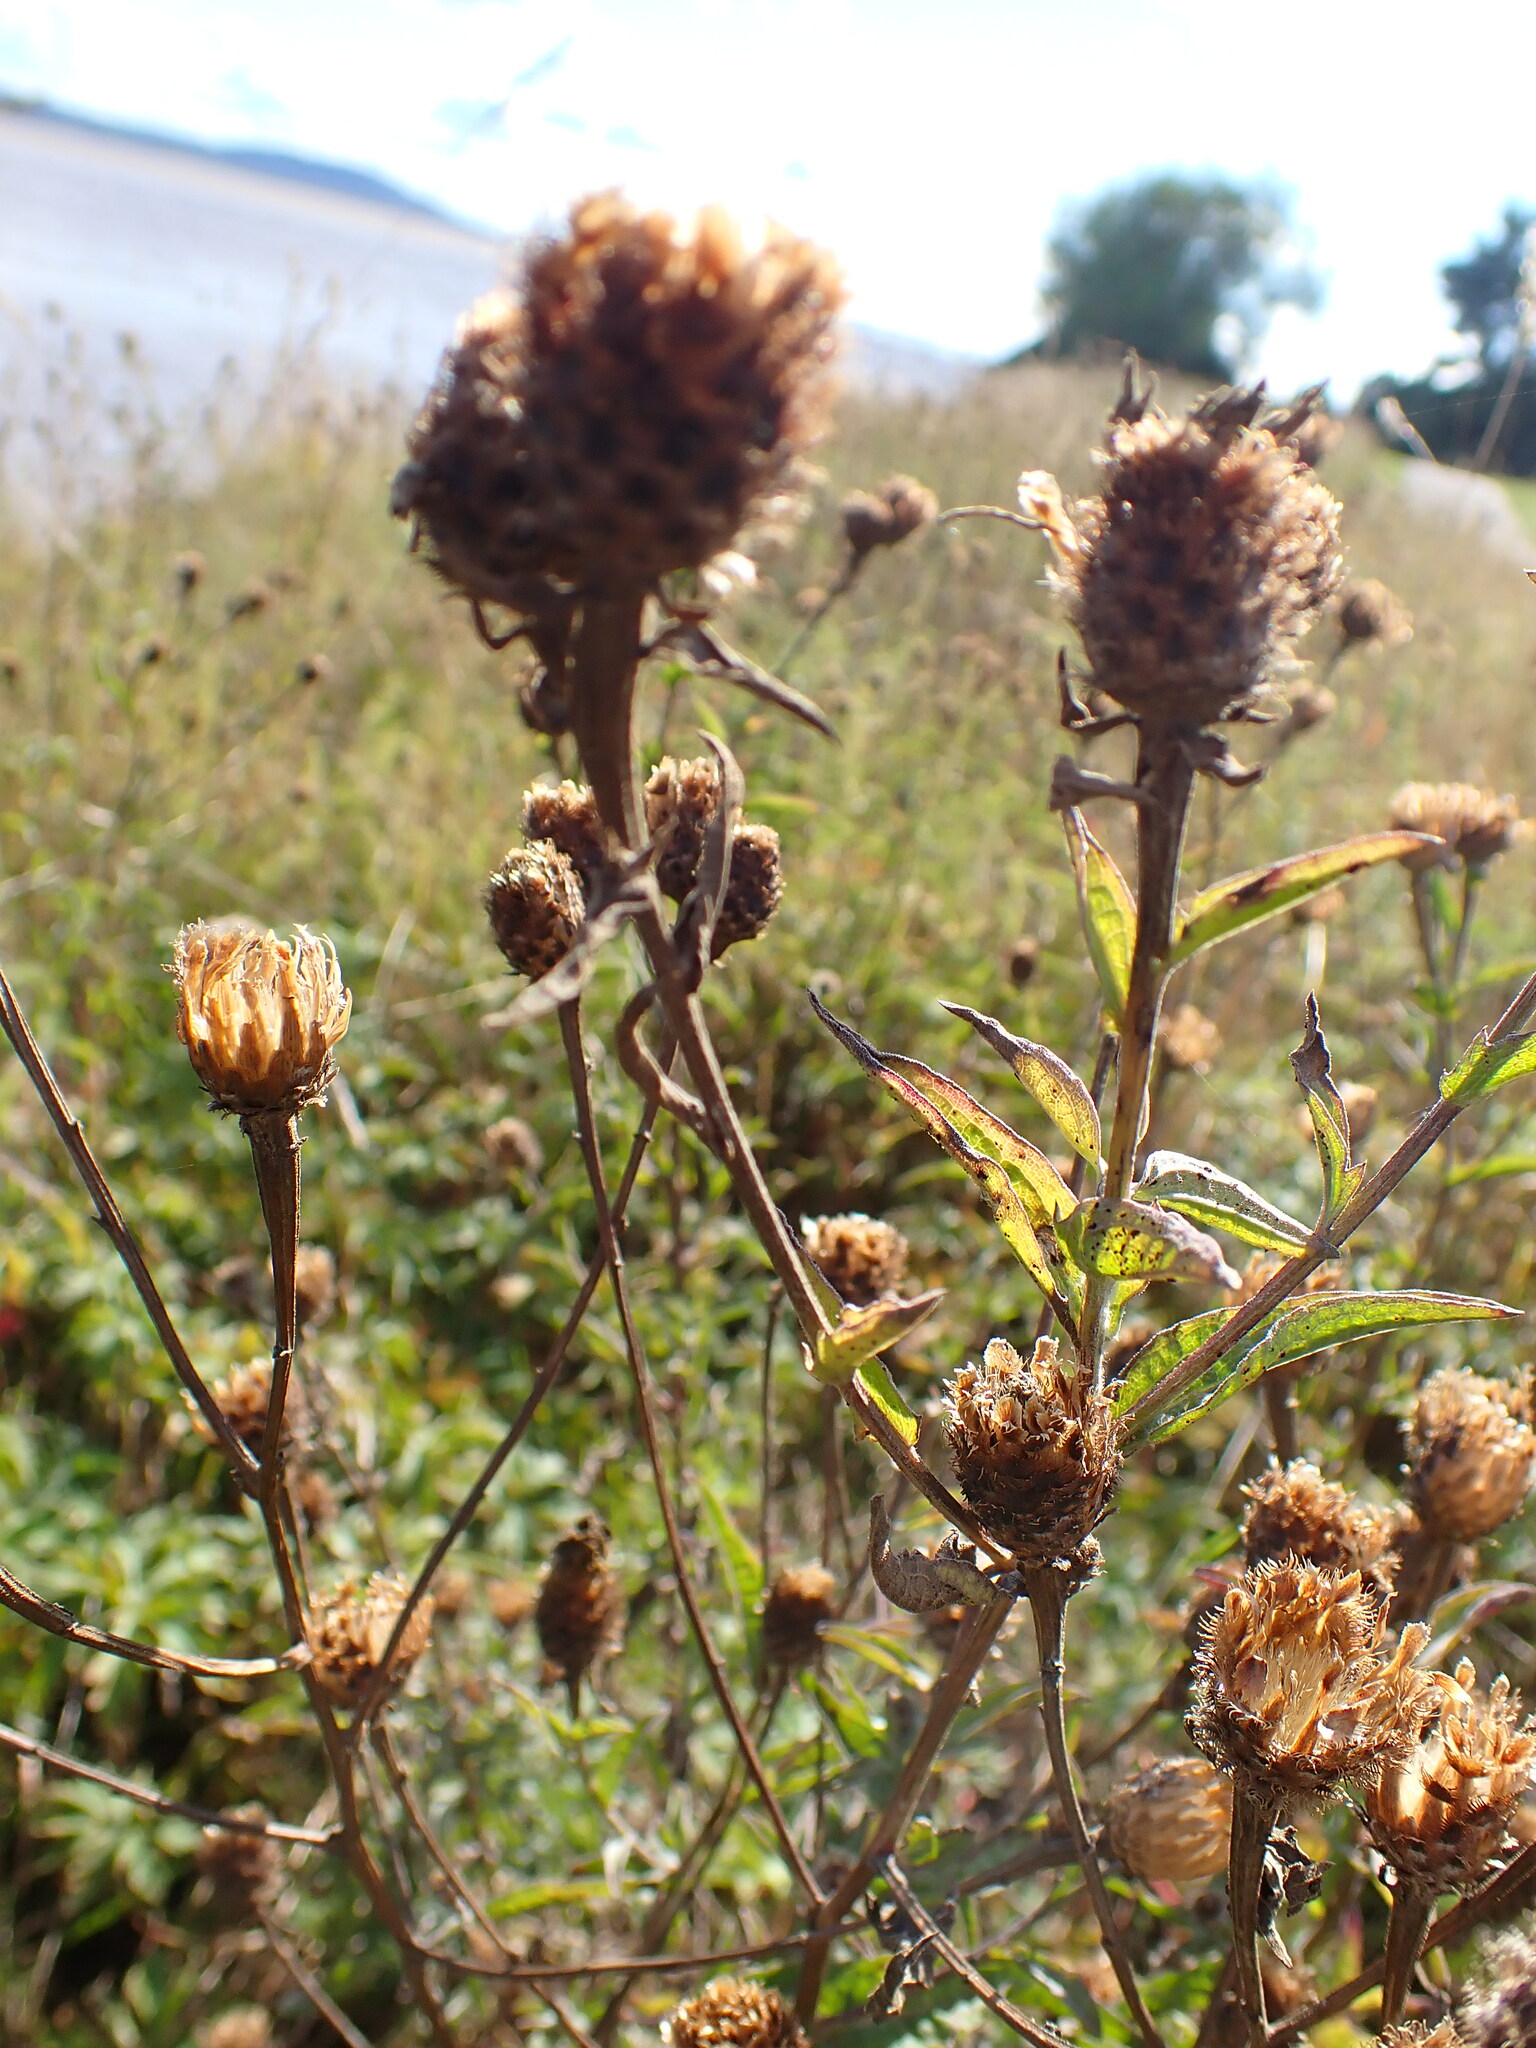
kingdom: Plantae
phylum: Tracheophyta
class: Magnoliopsida
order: Asterales
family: Asteraceae
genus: Centaurea
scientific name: Centaurea nigra
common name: Lesser knapweed
